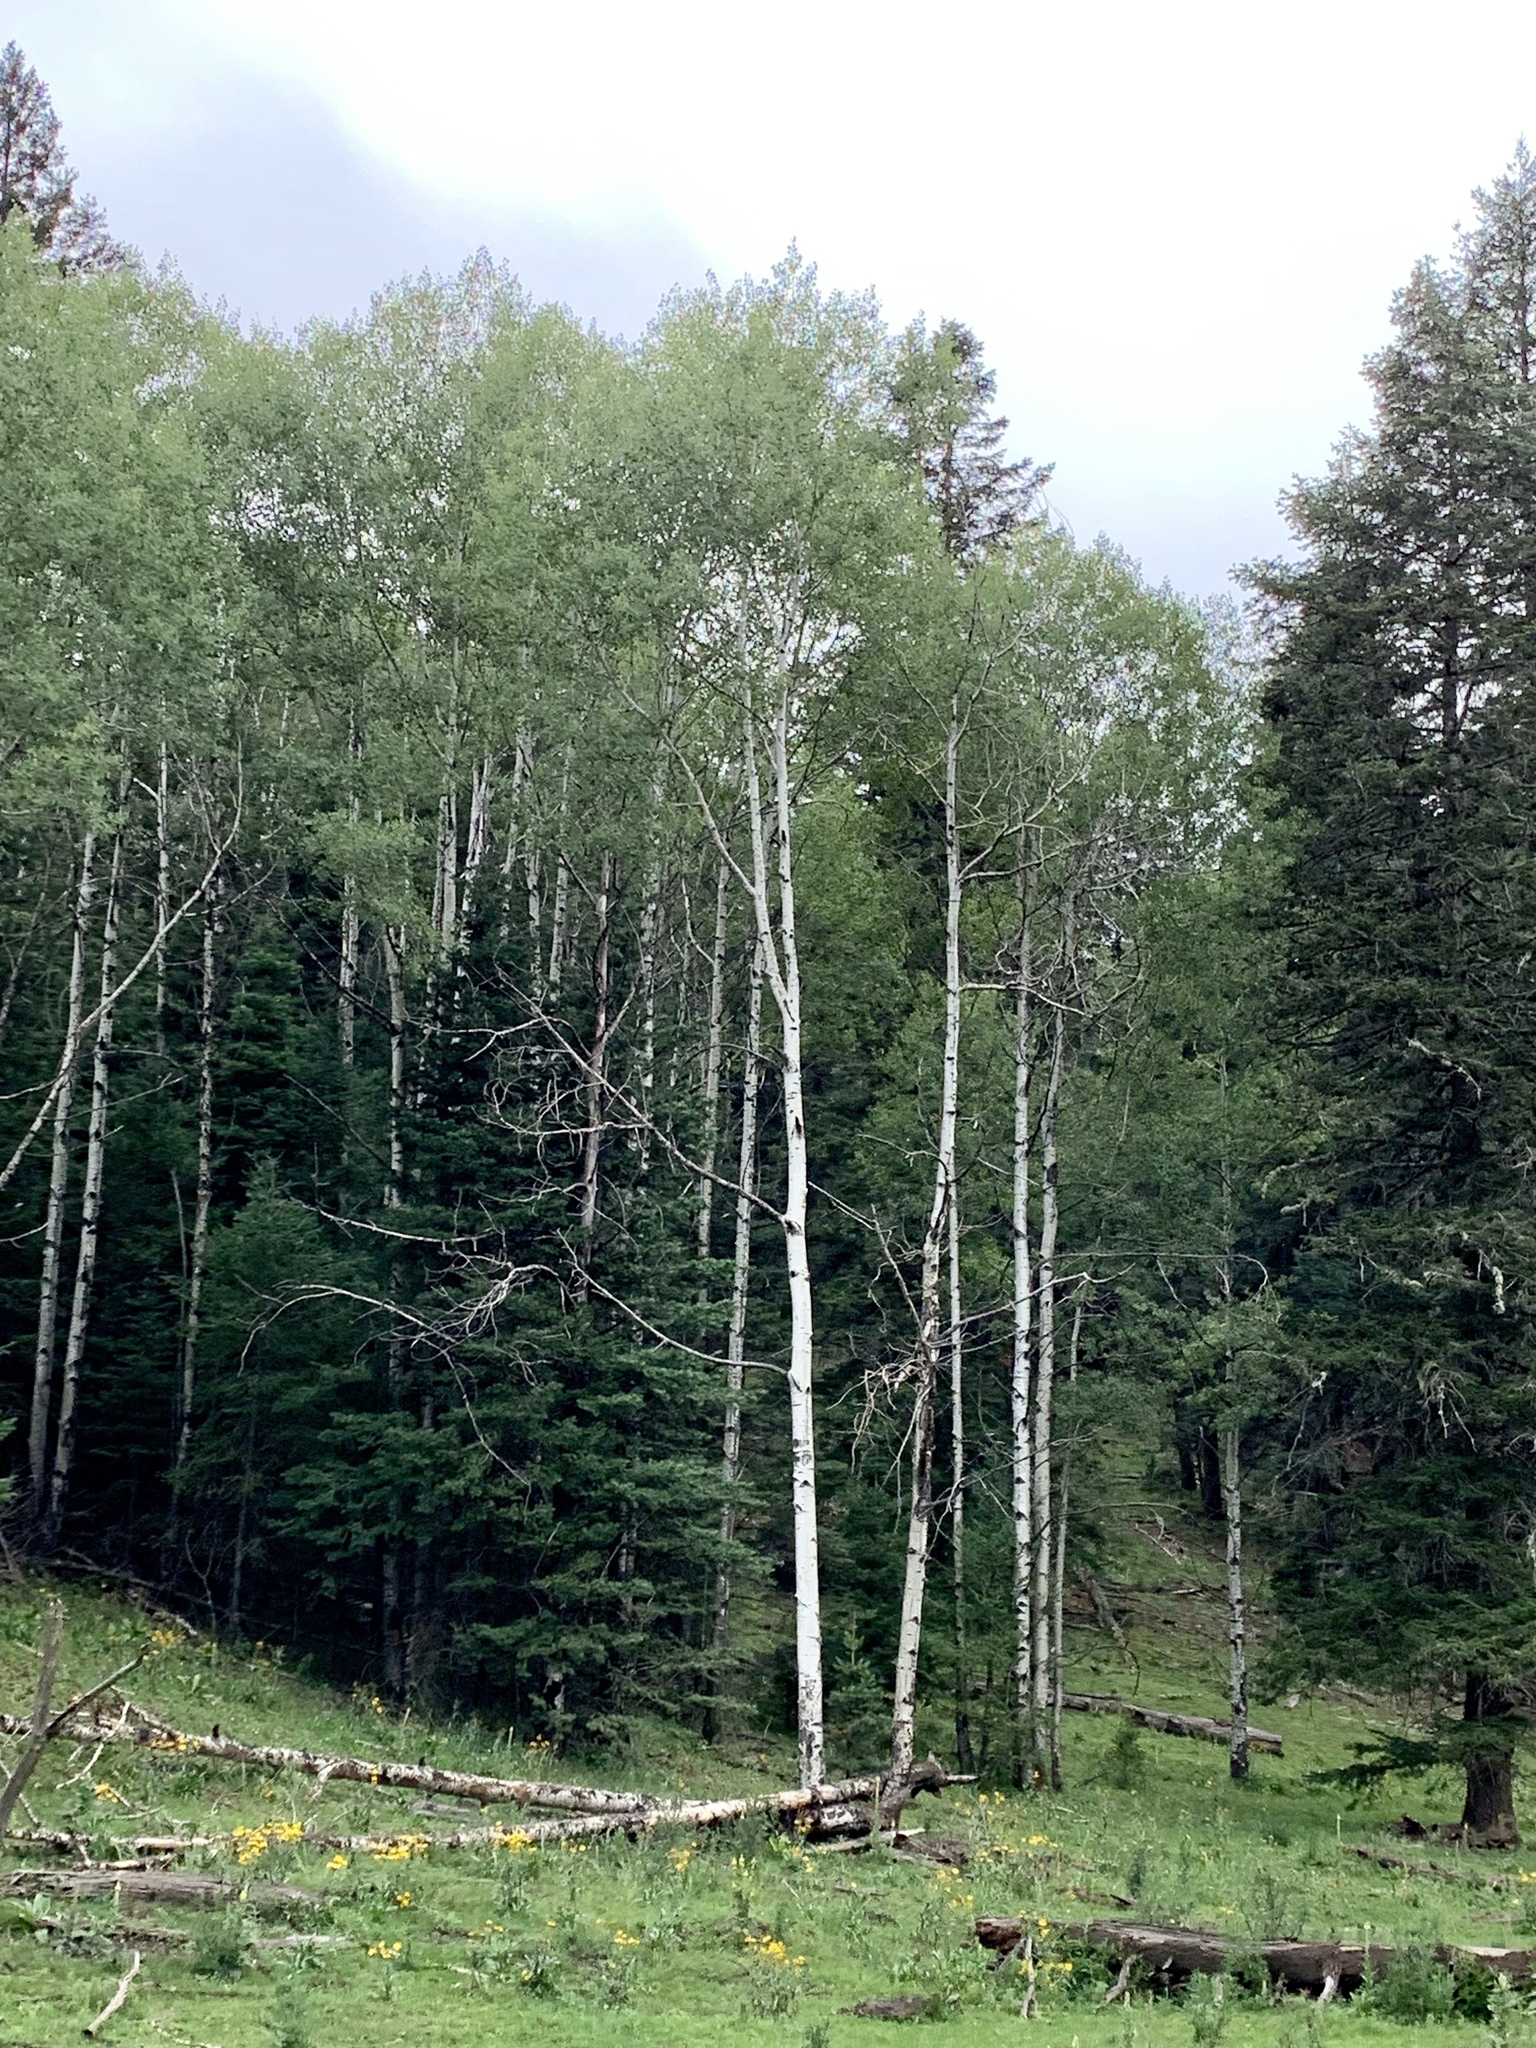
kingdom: Plantae
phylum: Tracheophyta
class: Magnoliopsida
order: Malpighiales
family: Salicaceae
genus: Populus
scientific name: Populus tremuloides
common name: Quaking aspen
